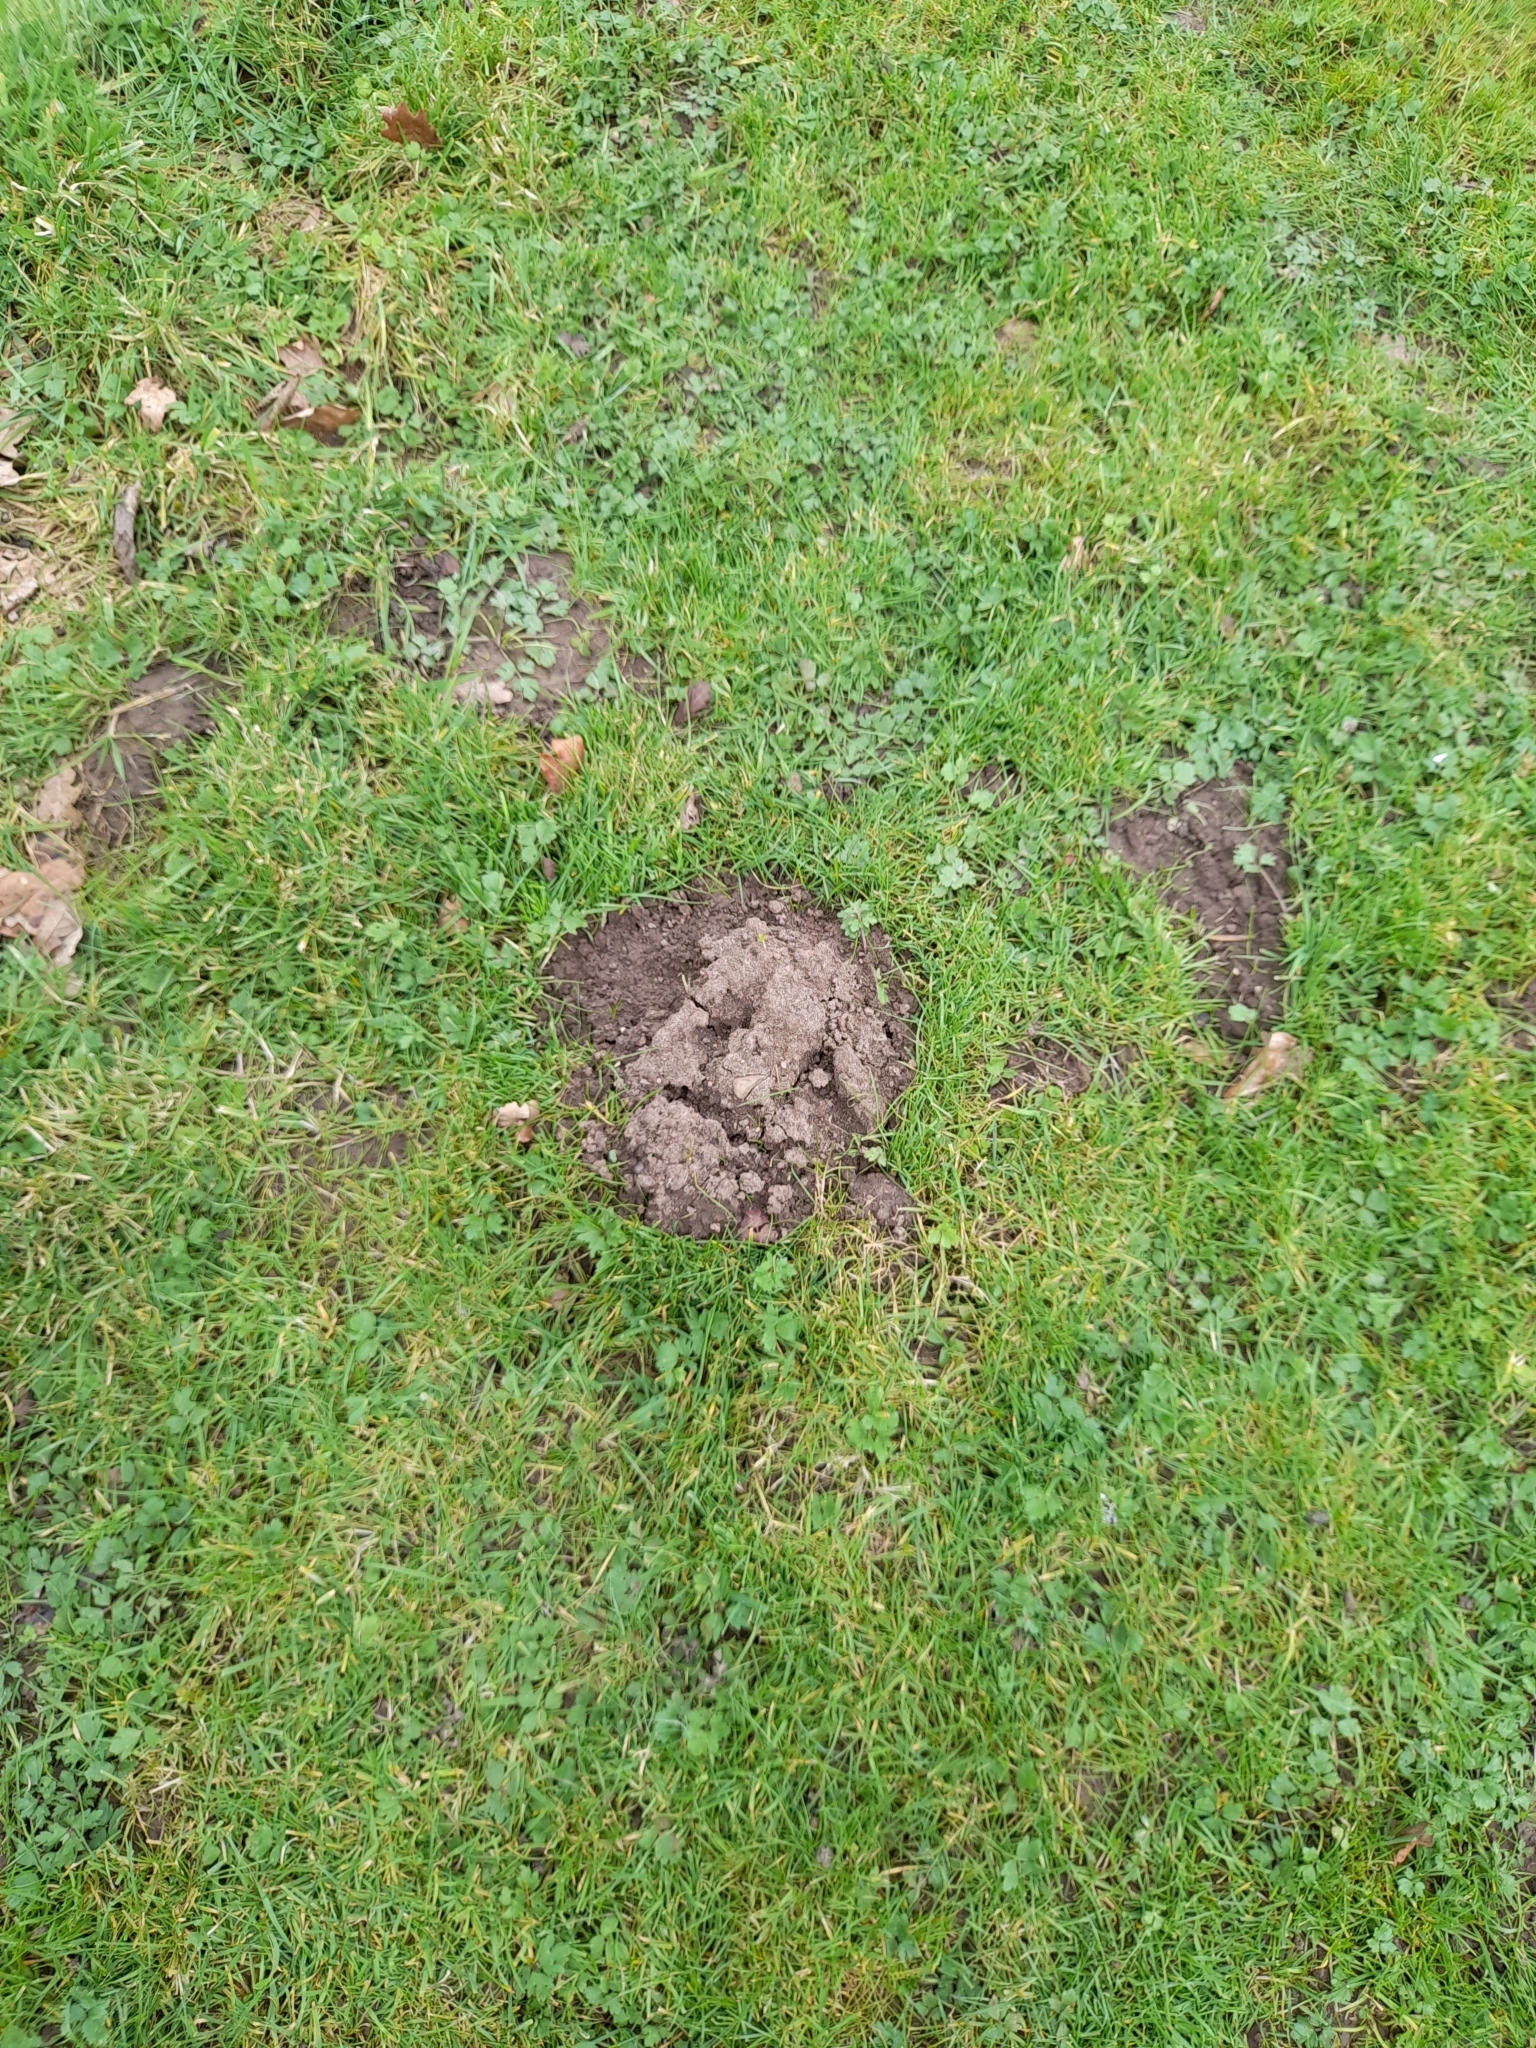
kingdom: Animalia
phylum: Chordata
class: Mammalia
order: Soricomorpha
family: Talpidae
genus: Talpa
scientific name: Talpa europaea
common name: European mole
